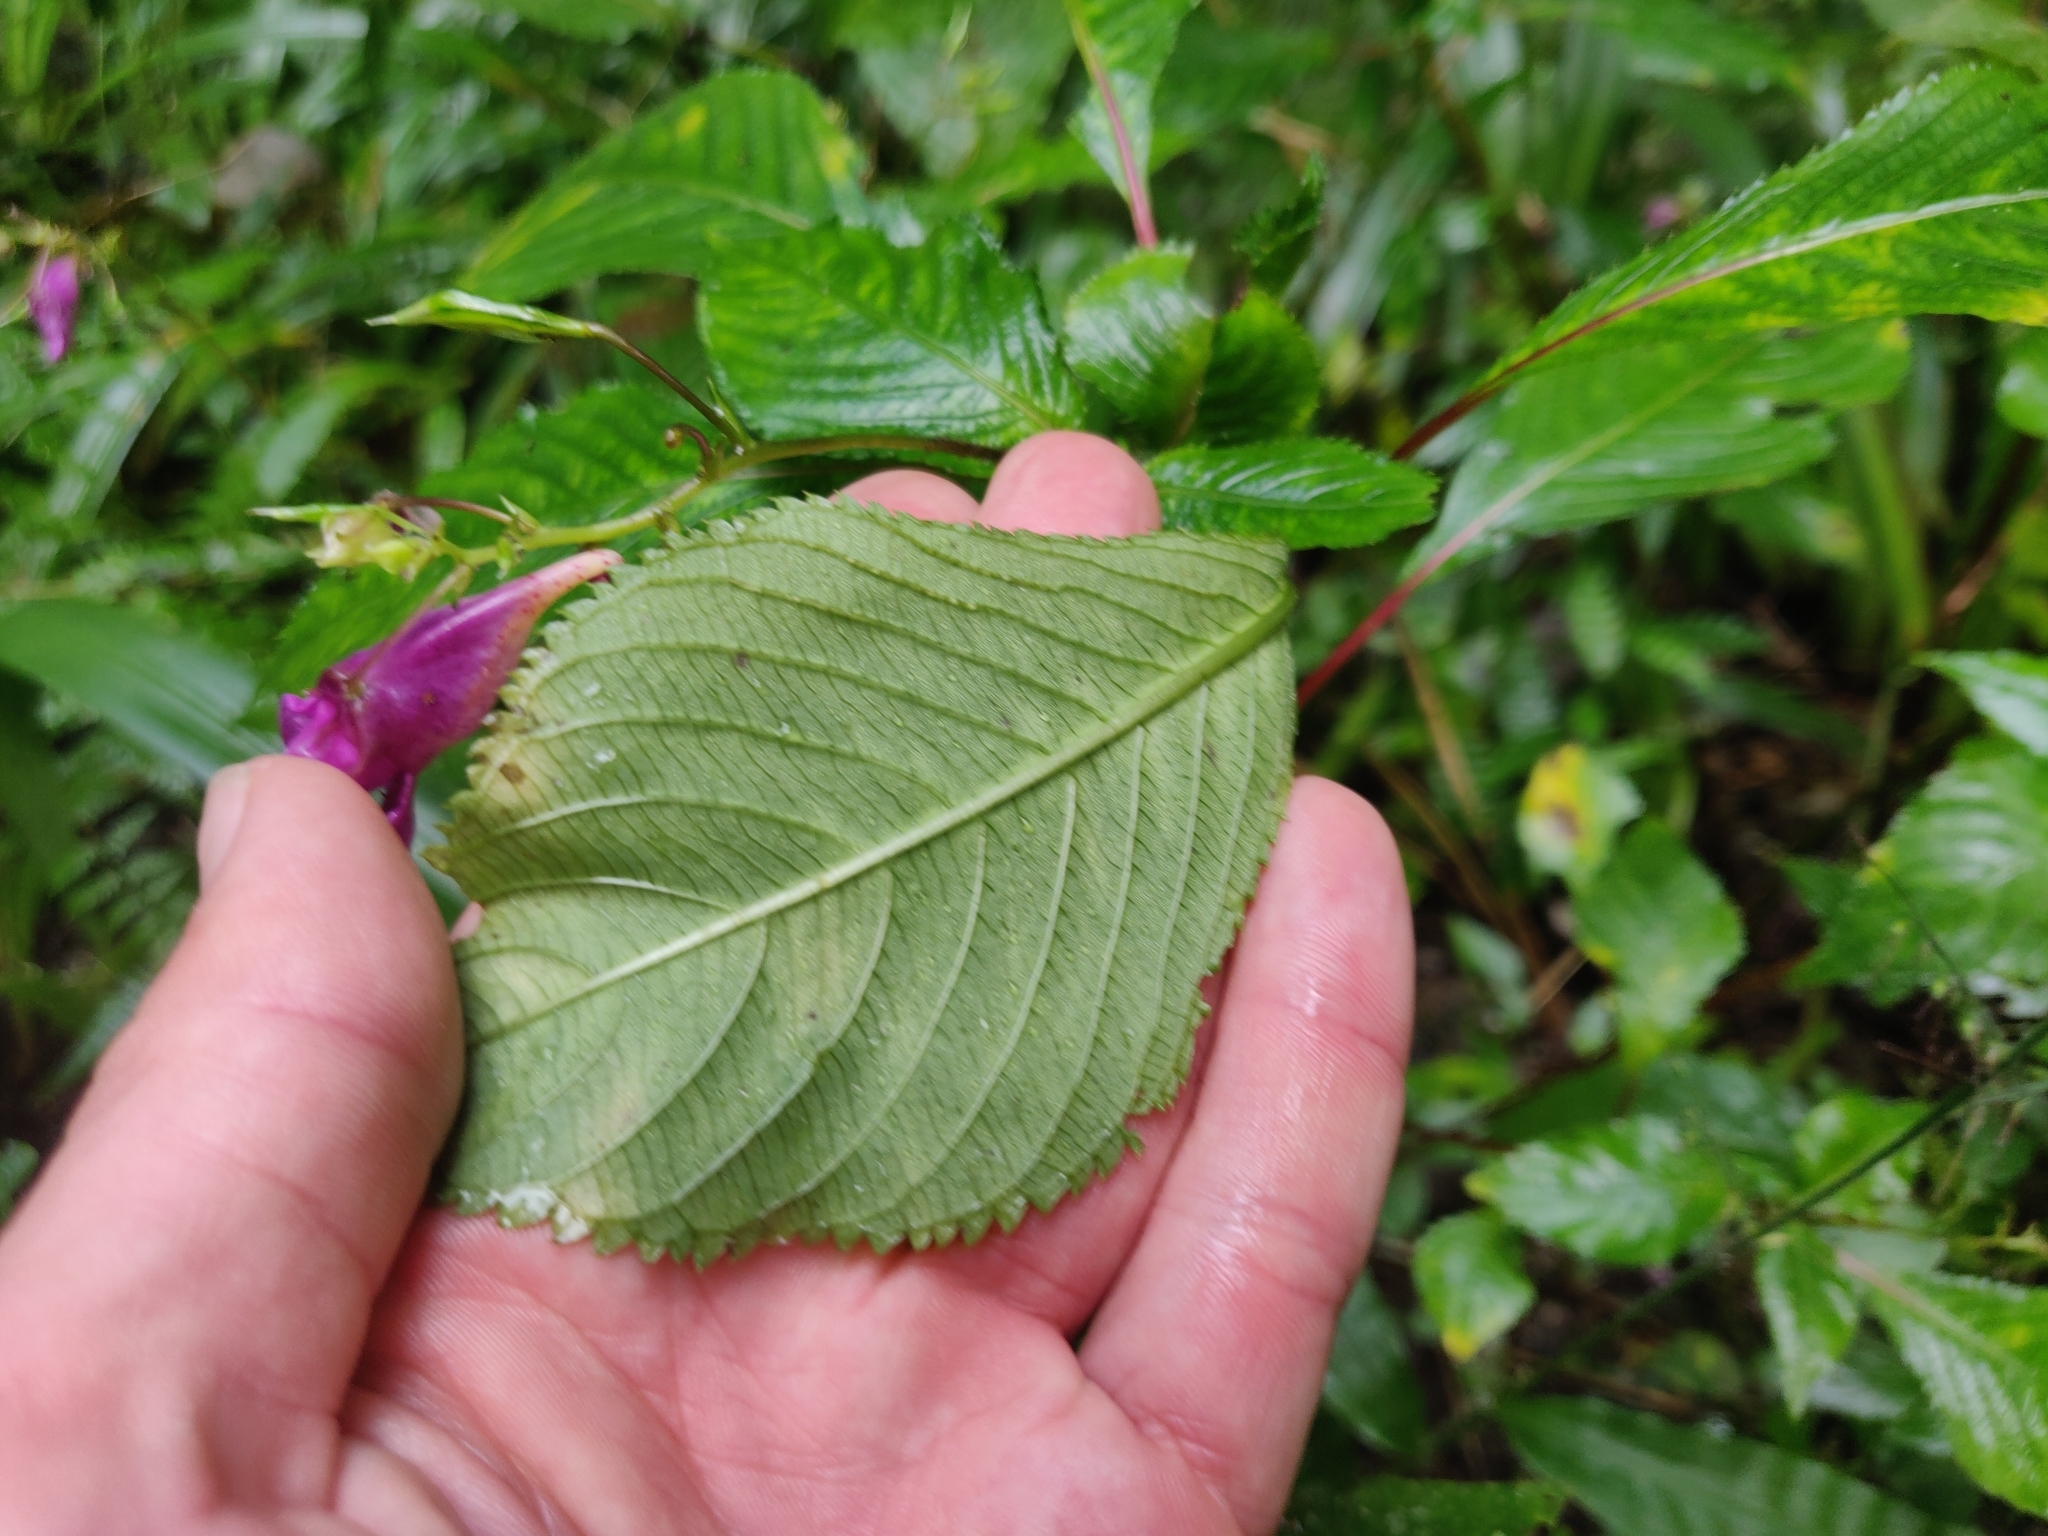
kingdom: Plantae
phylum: Tracheophyta
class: Magnoliopsida
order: Ericales
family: Balsaminaceae
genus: Impatiens
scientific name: Impatiens textorii
